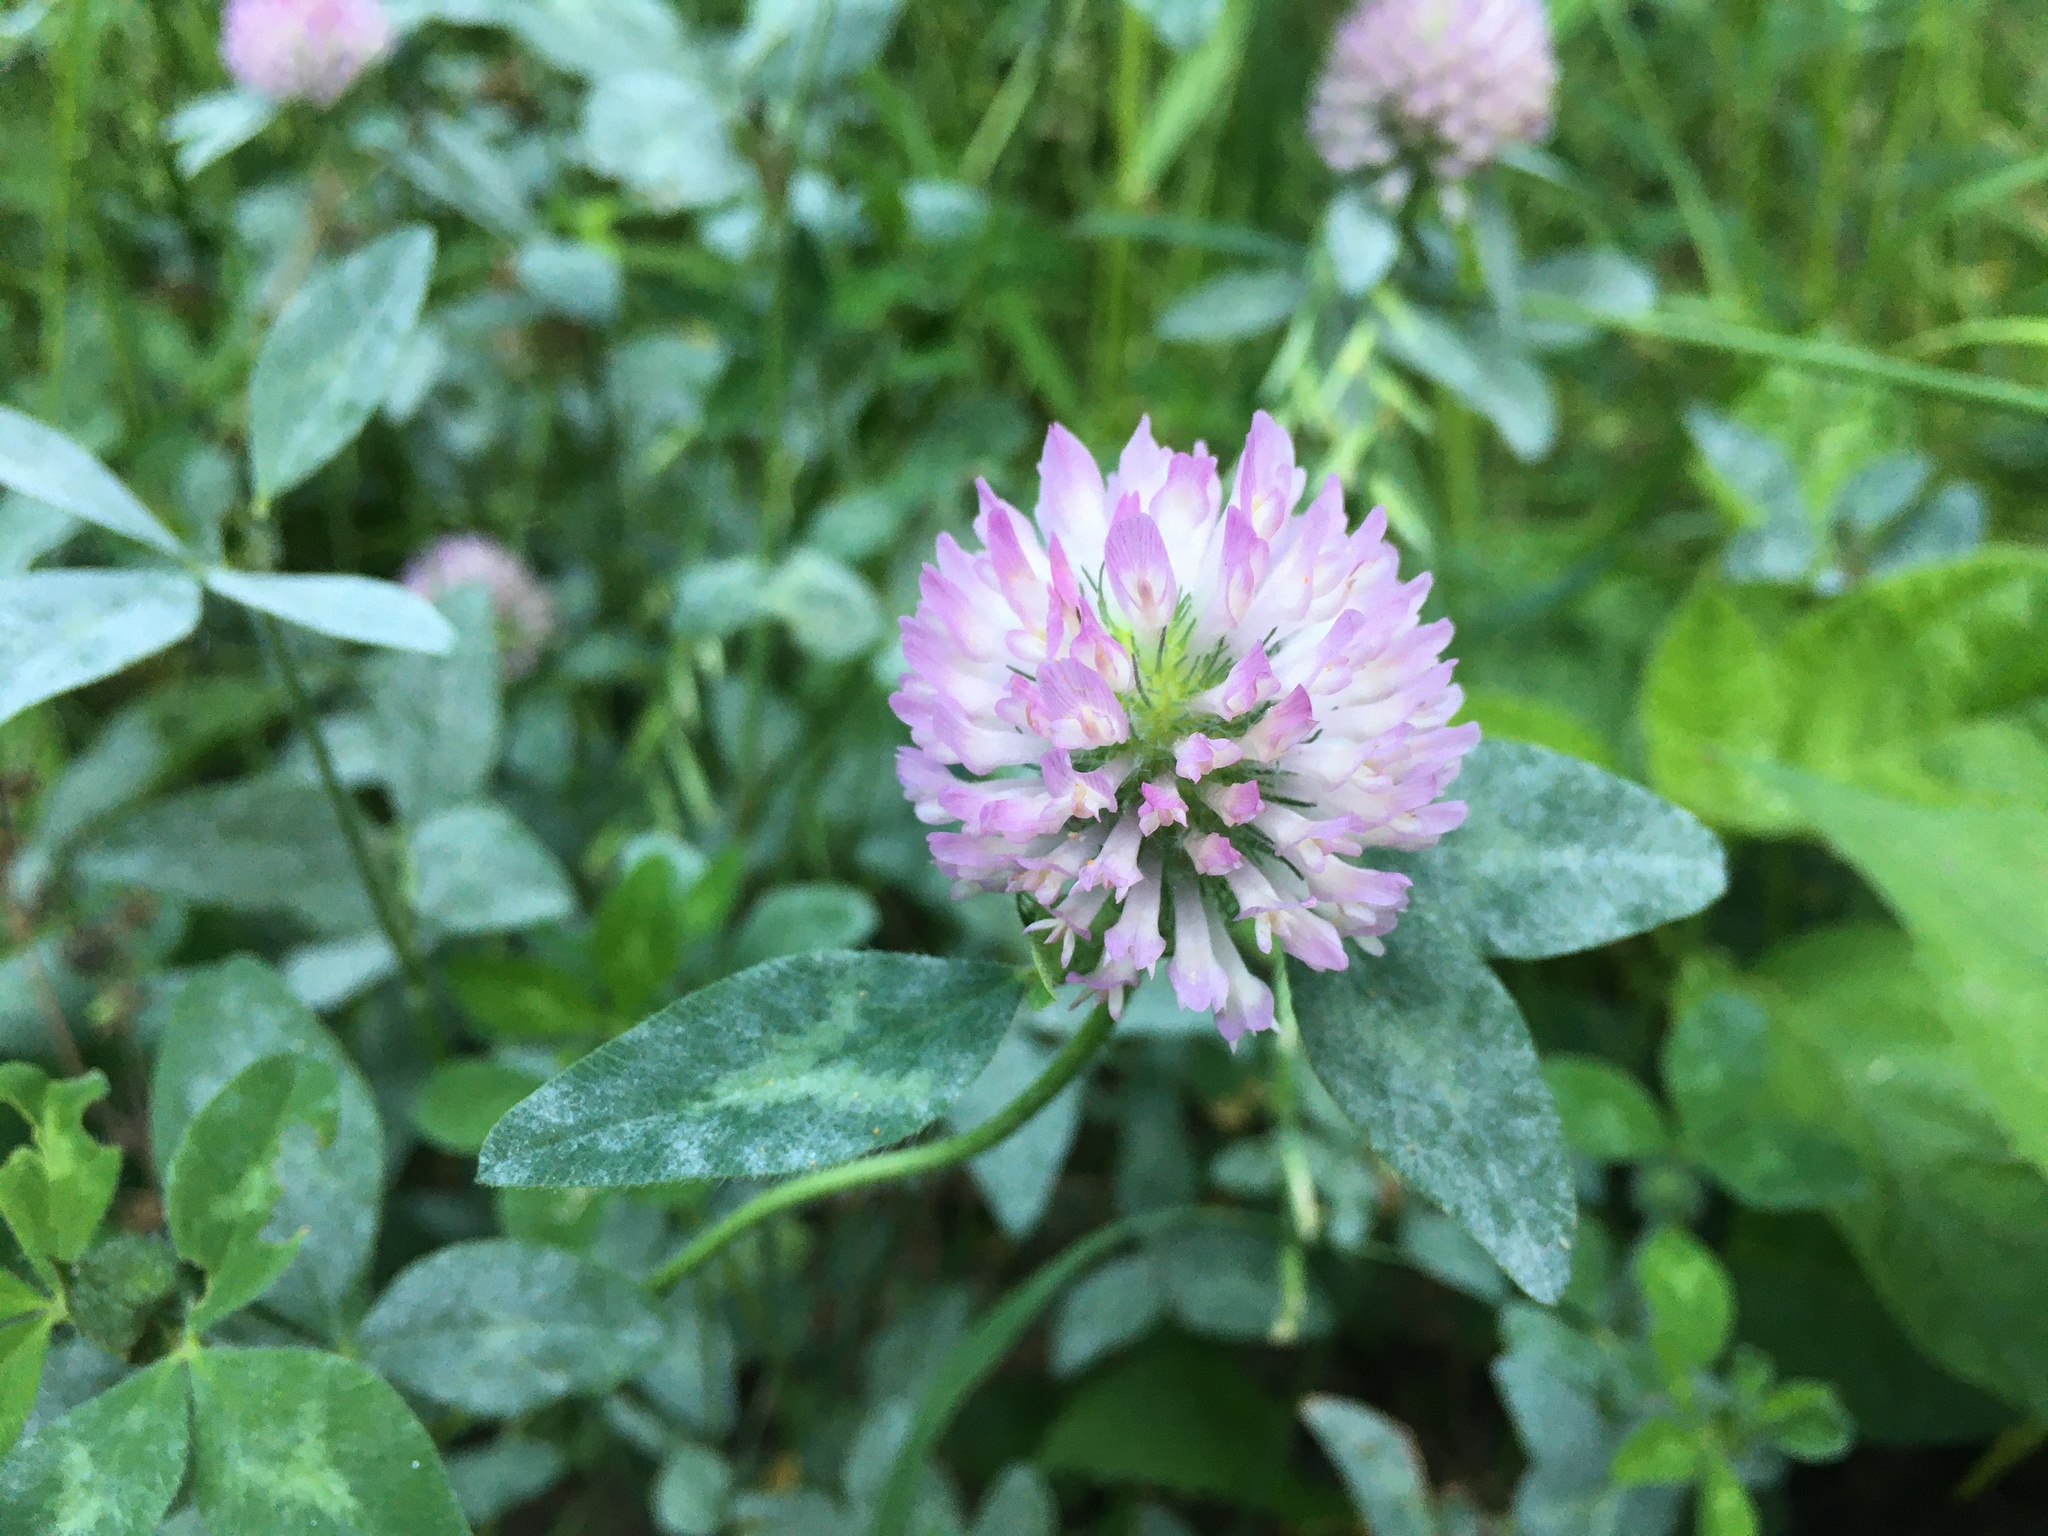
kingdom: Plantae
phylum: Tracheophyta
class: Magnoliopsida
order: Fabales
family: Fabaceae
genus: Trifolium
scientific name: Trifolium pratense
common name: Red clover
